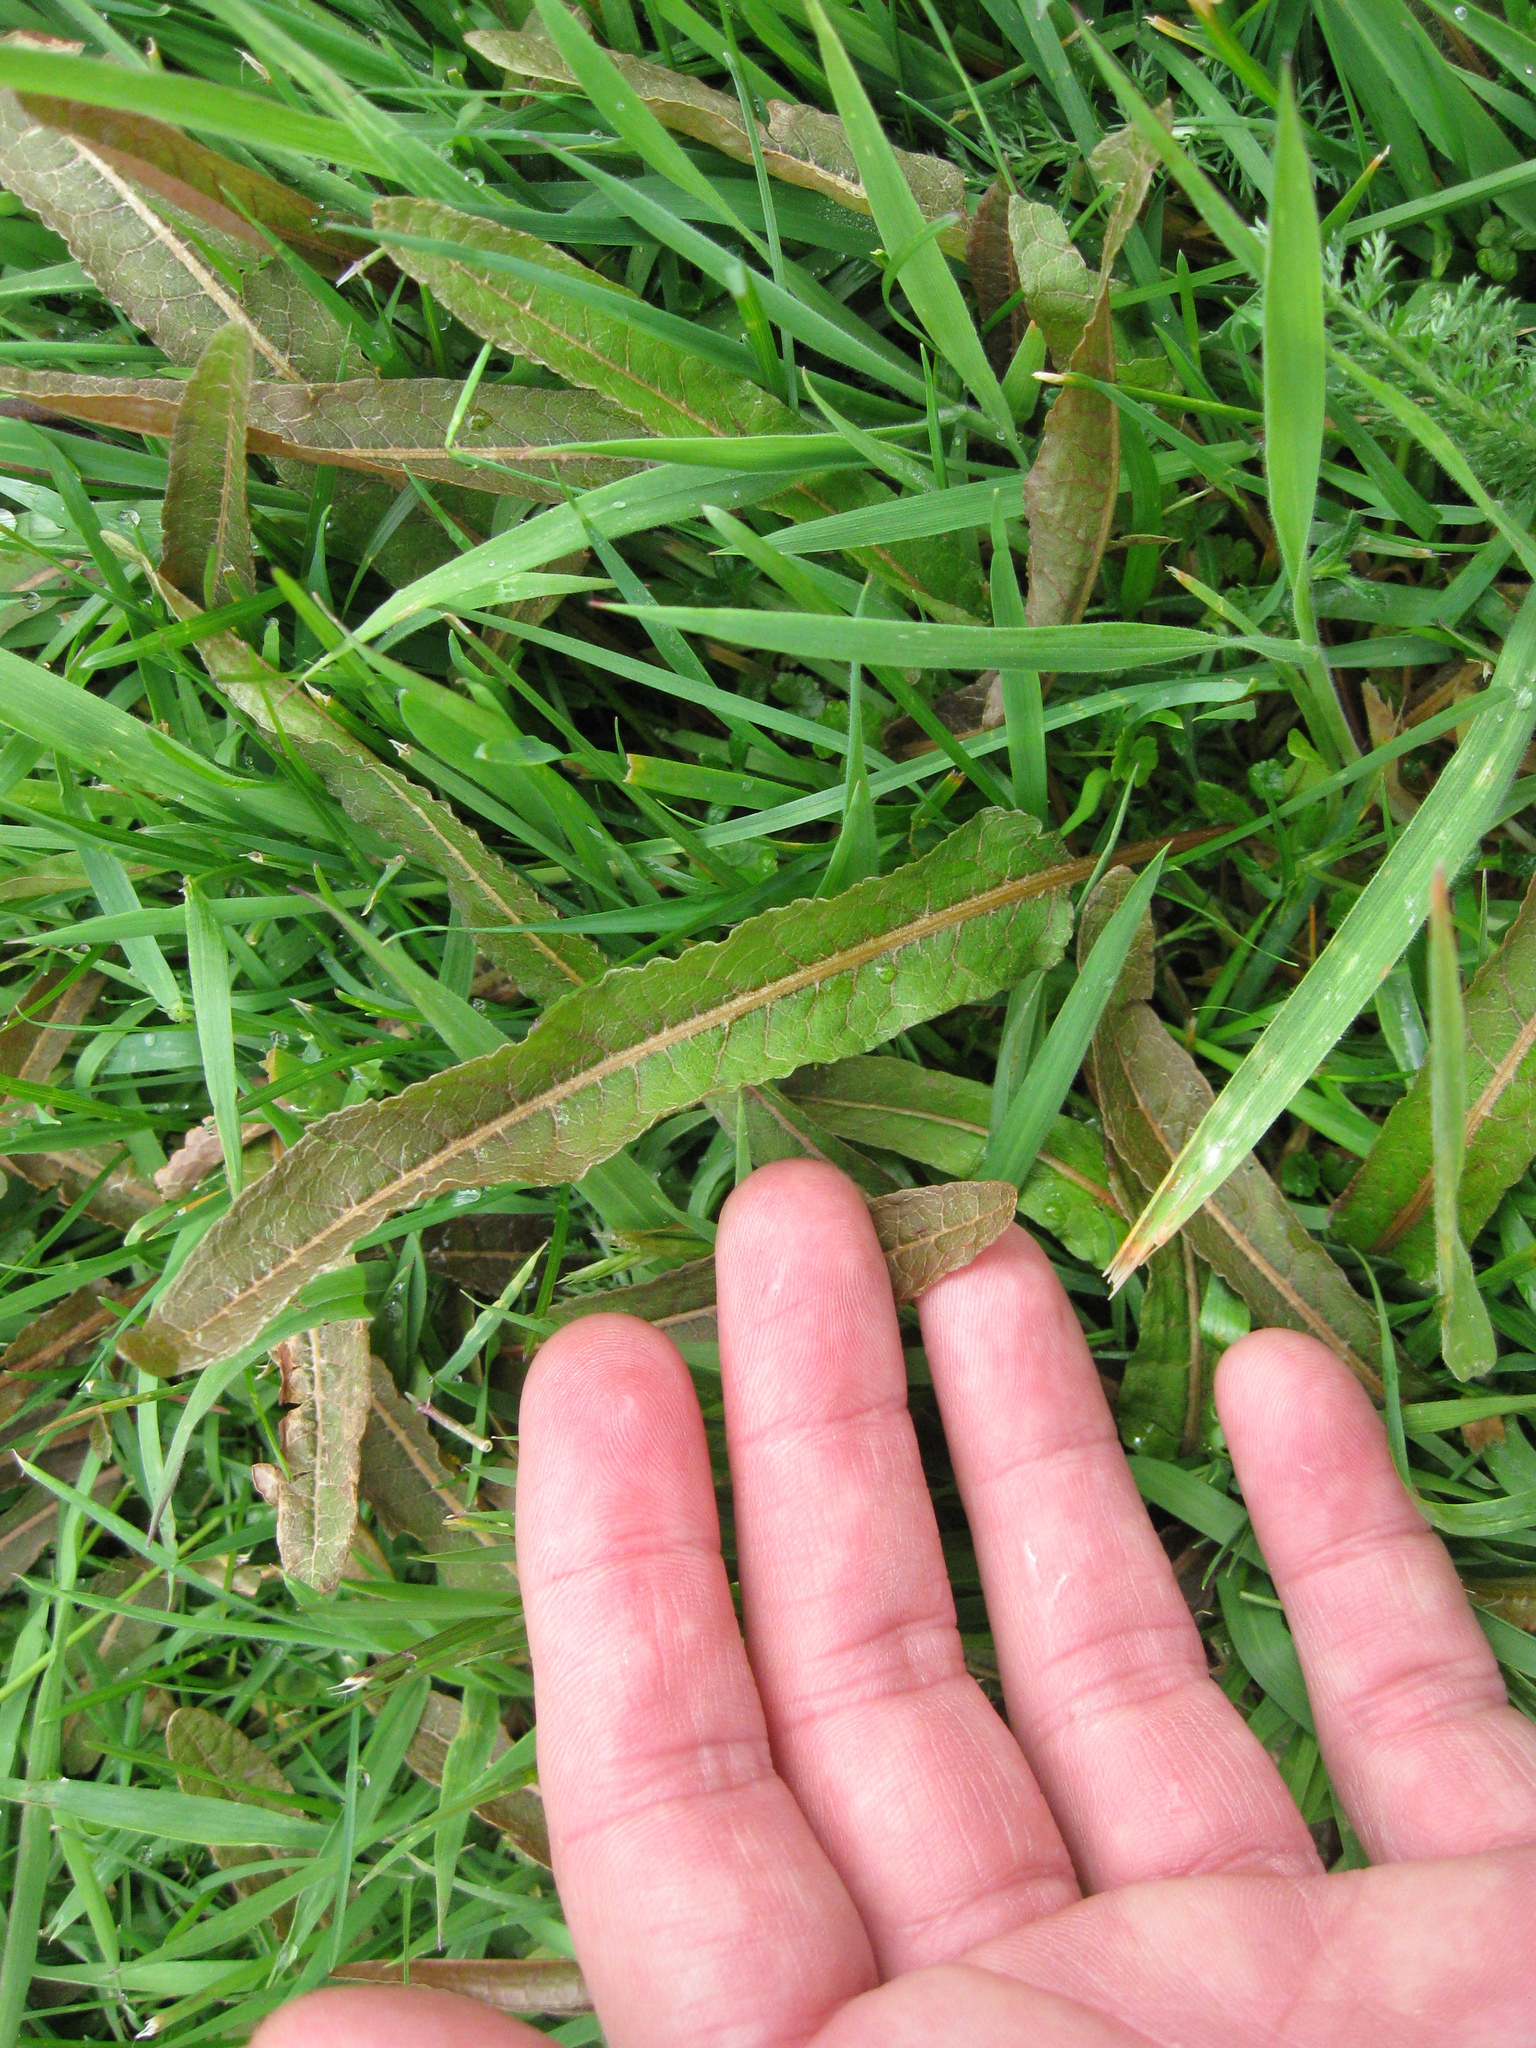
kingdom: Plantae
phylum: Tracheophyta
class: Magnoliopsida
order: Caryophyllales
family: Polygonaceae
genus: Rumex
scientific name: Rumex flexuosus
